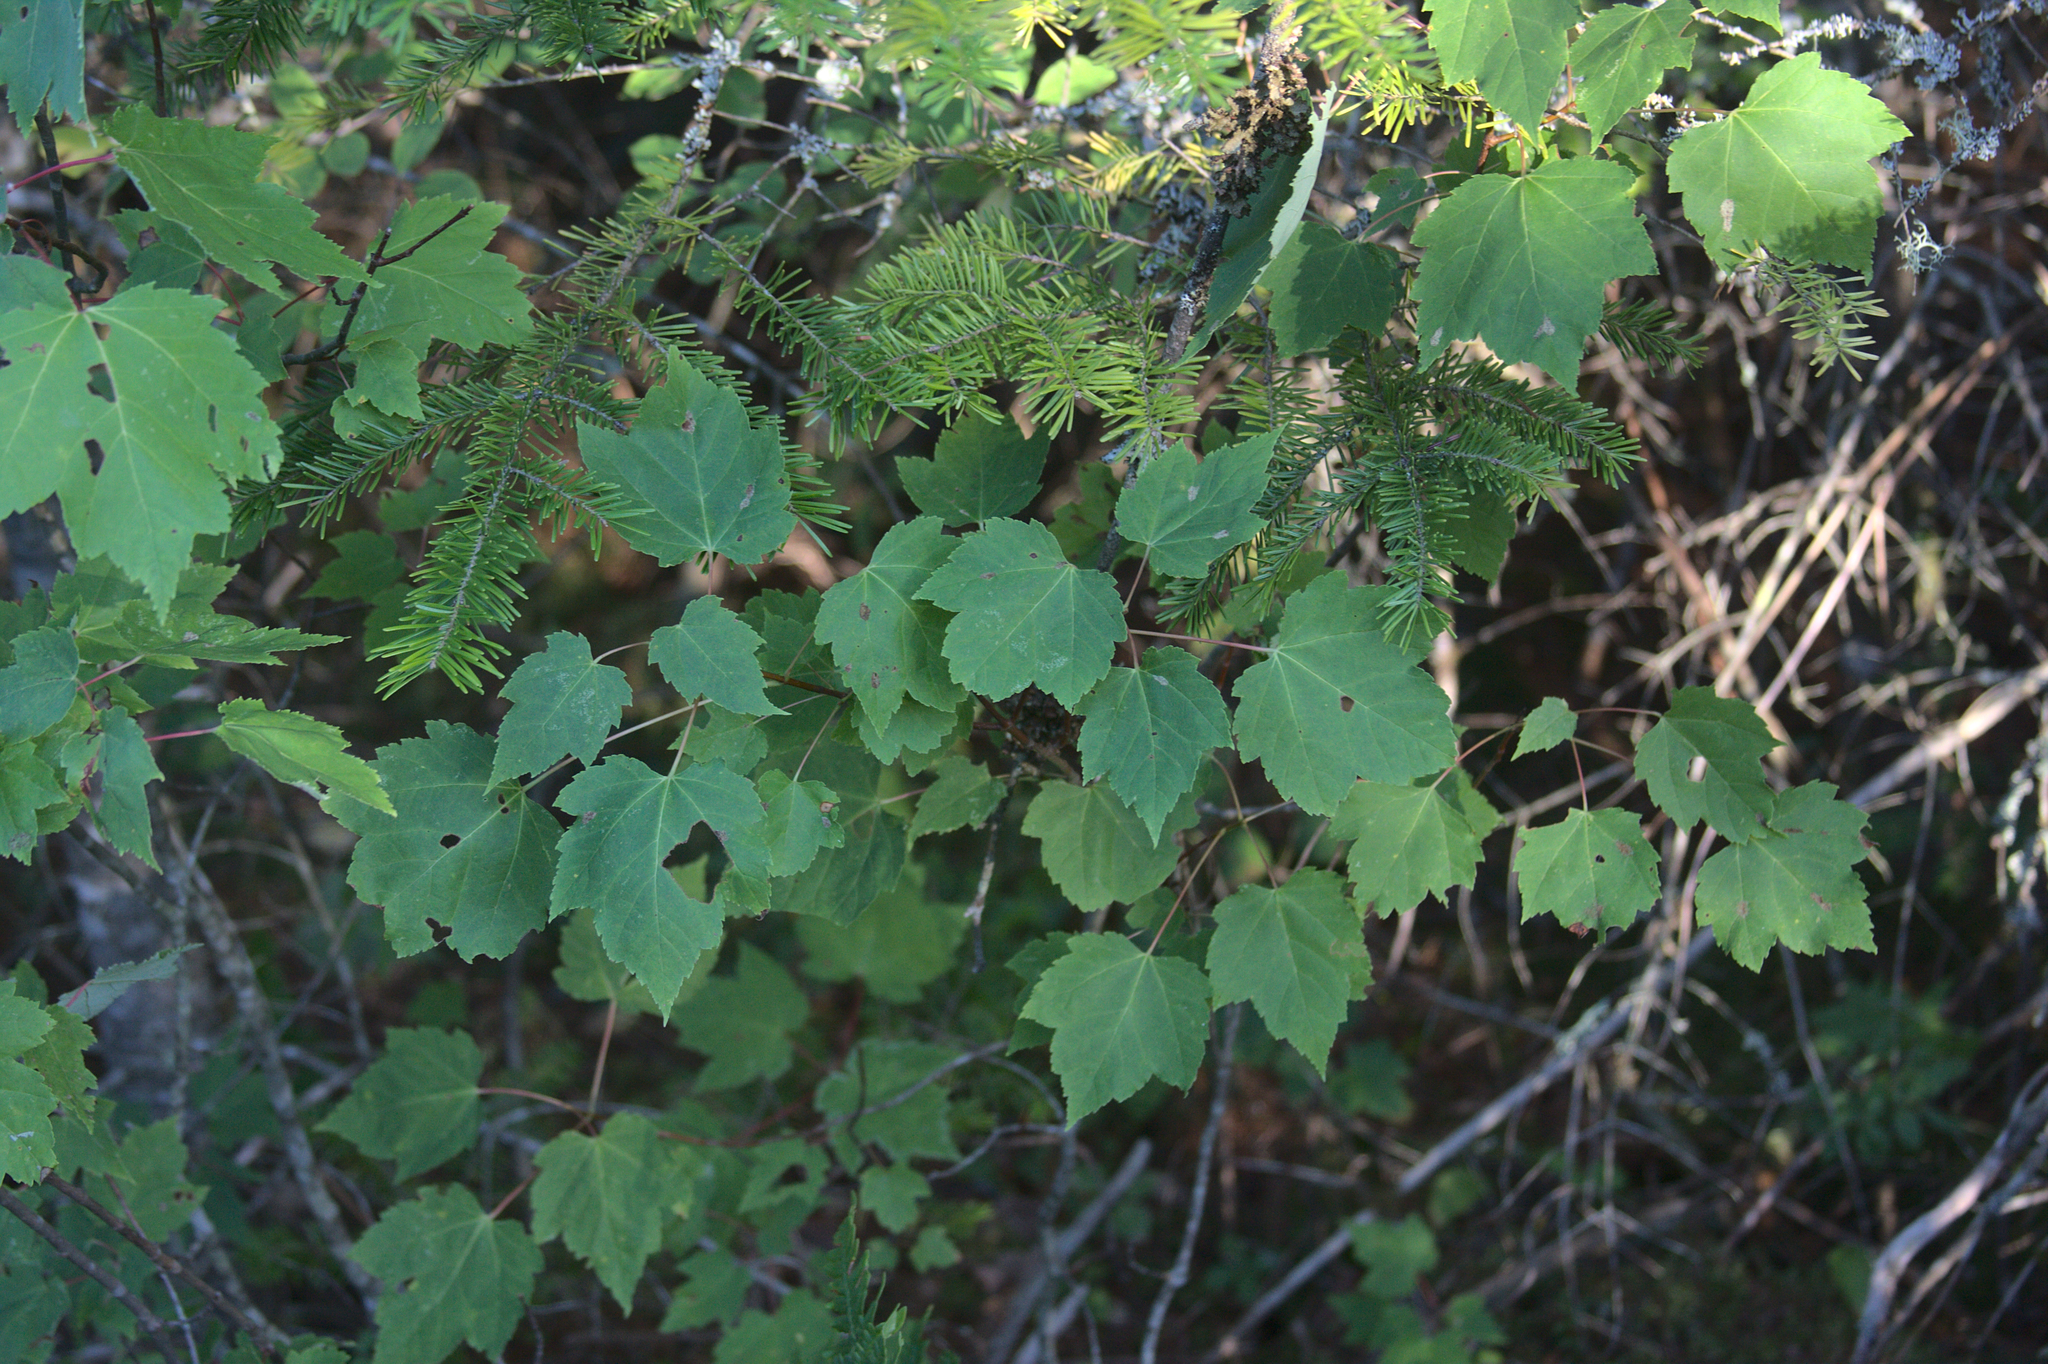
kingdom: Plantae
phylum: Tracheophyta
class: Magnoliopsida
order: Sapindales
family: Sapindaceae
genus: Acer
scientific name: Acer rubrum
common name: Red maple
